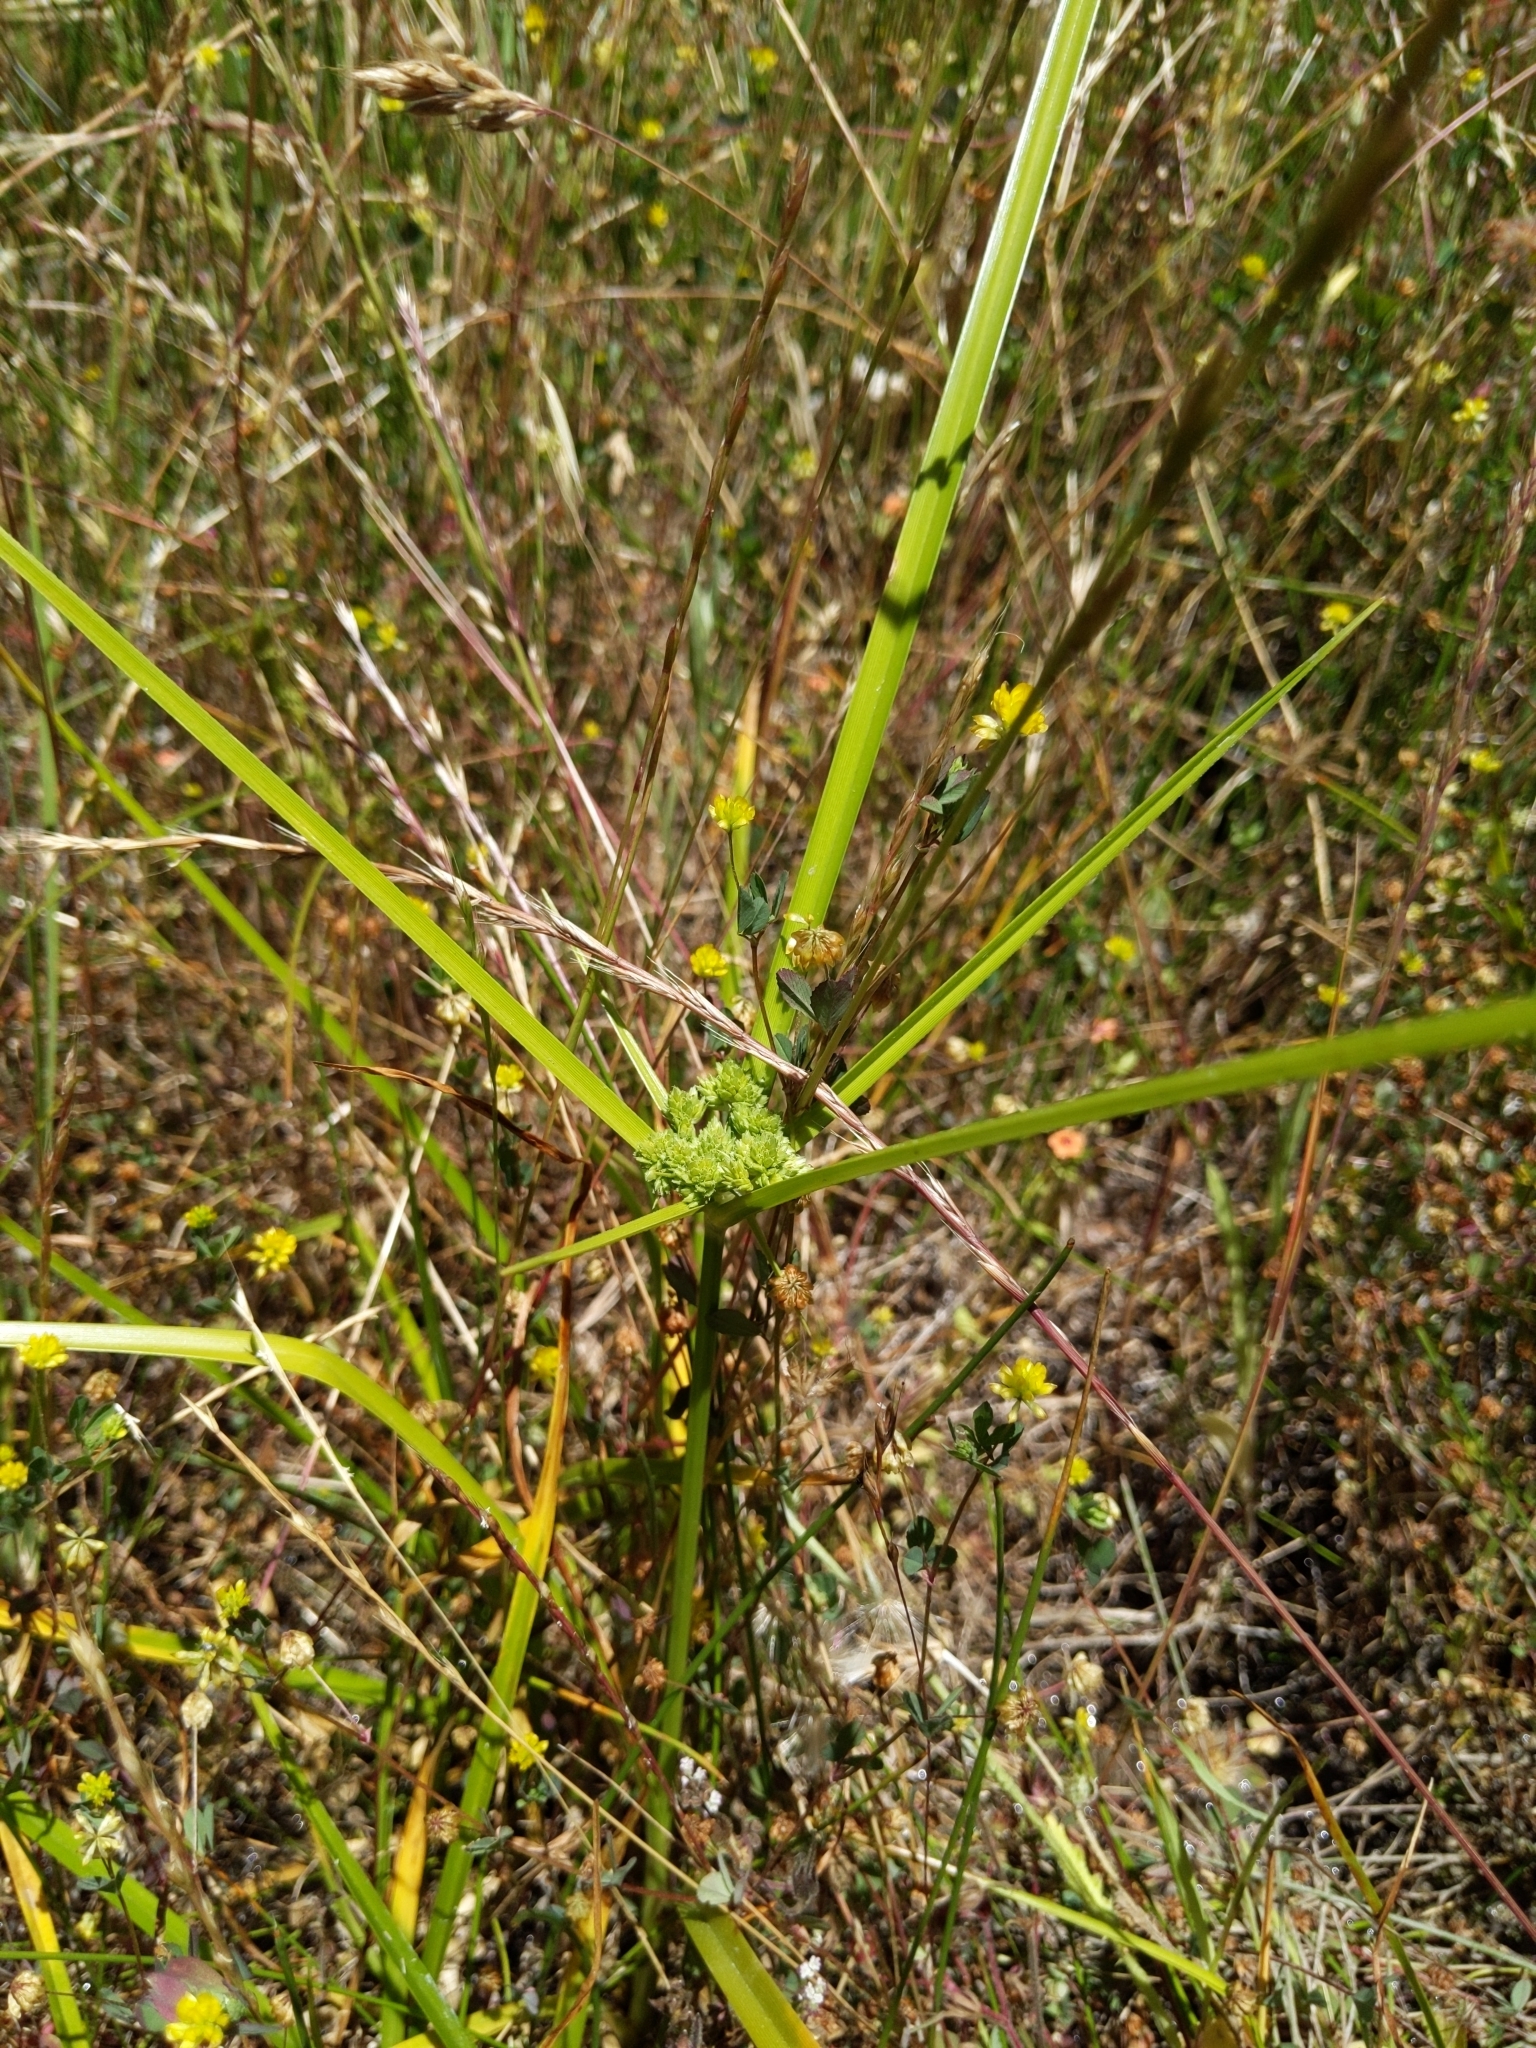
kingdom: Plantae
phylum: Tracheophyta
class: Liliopsida
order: Poales
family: Cyperaceae
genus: Cyperus
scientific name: Cyperus eragrostis
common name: Tall flatsedge
